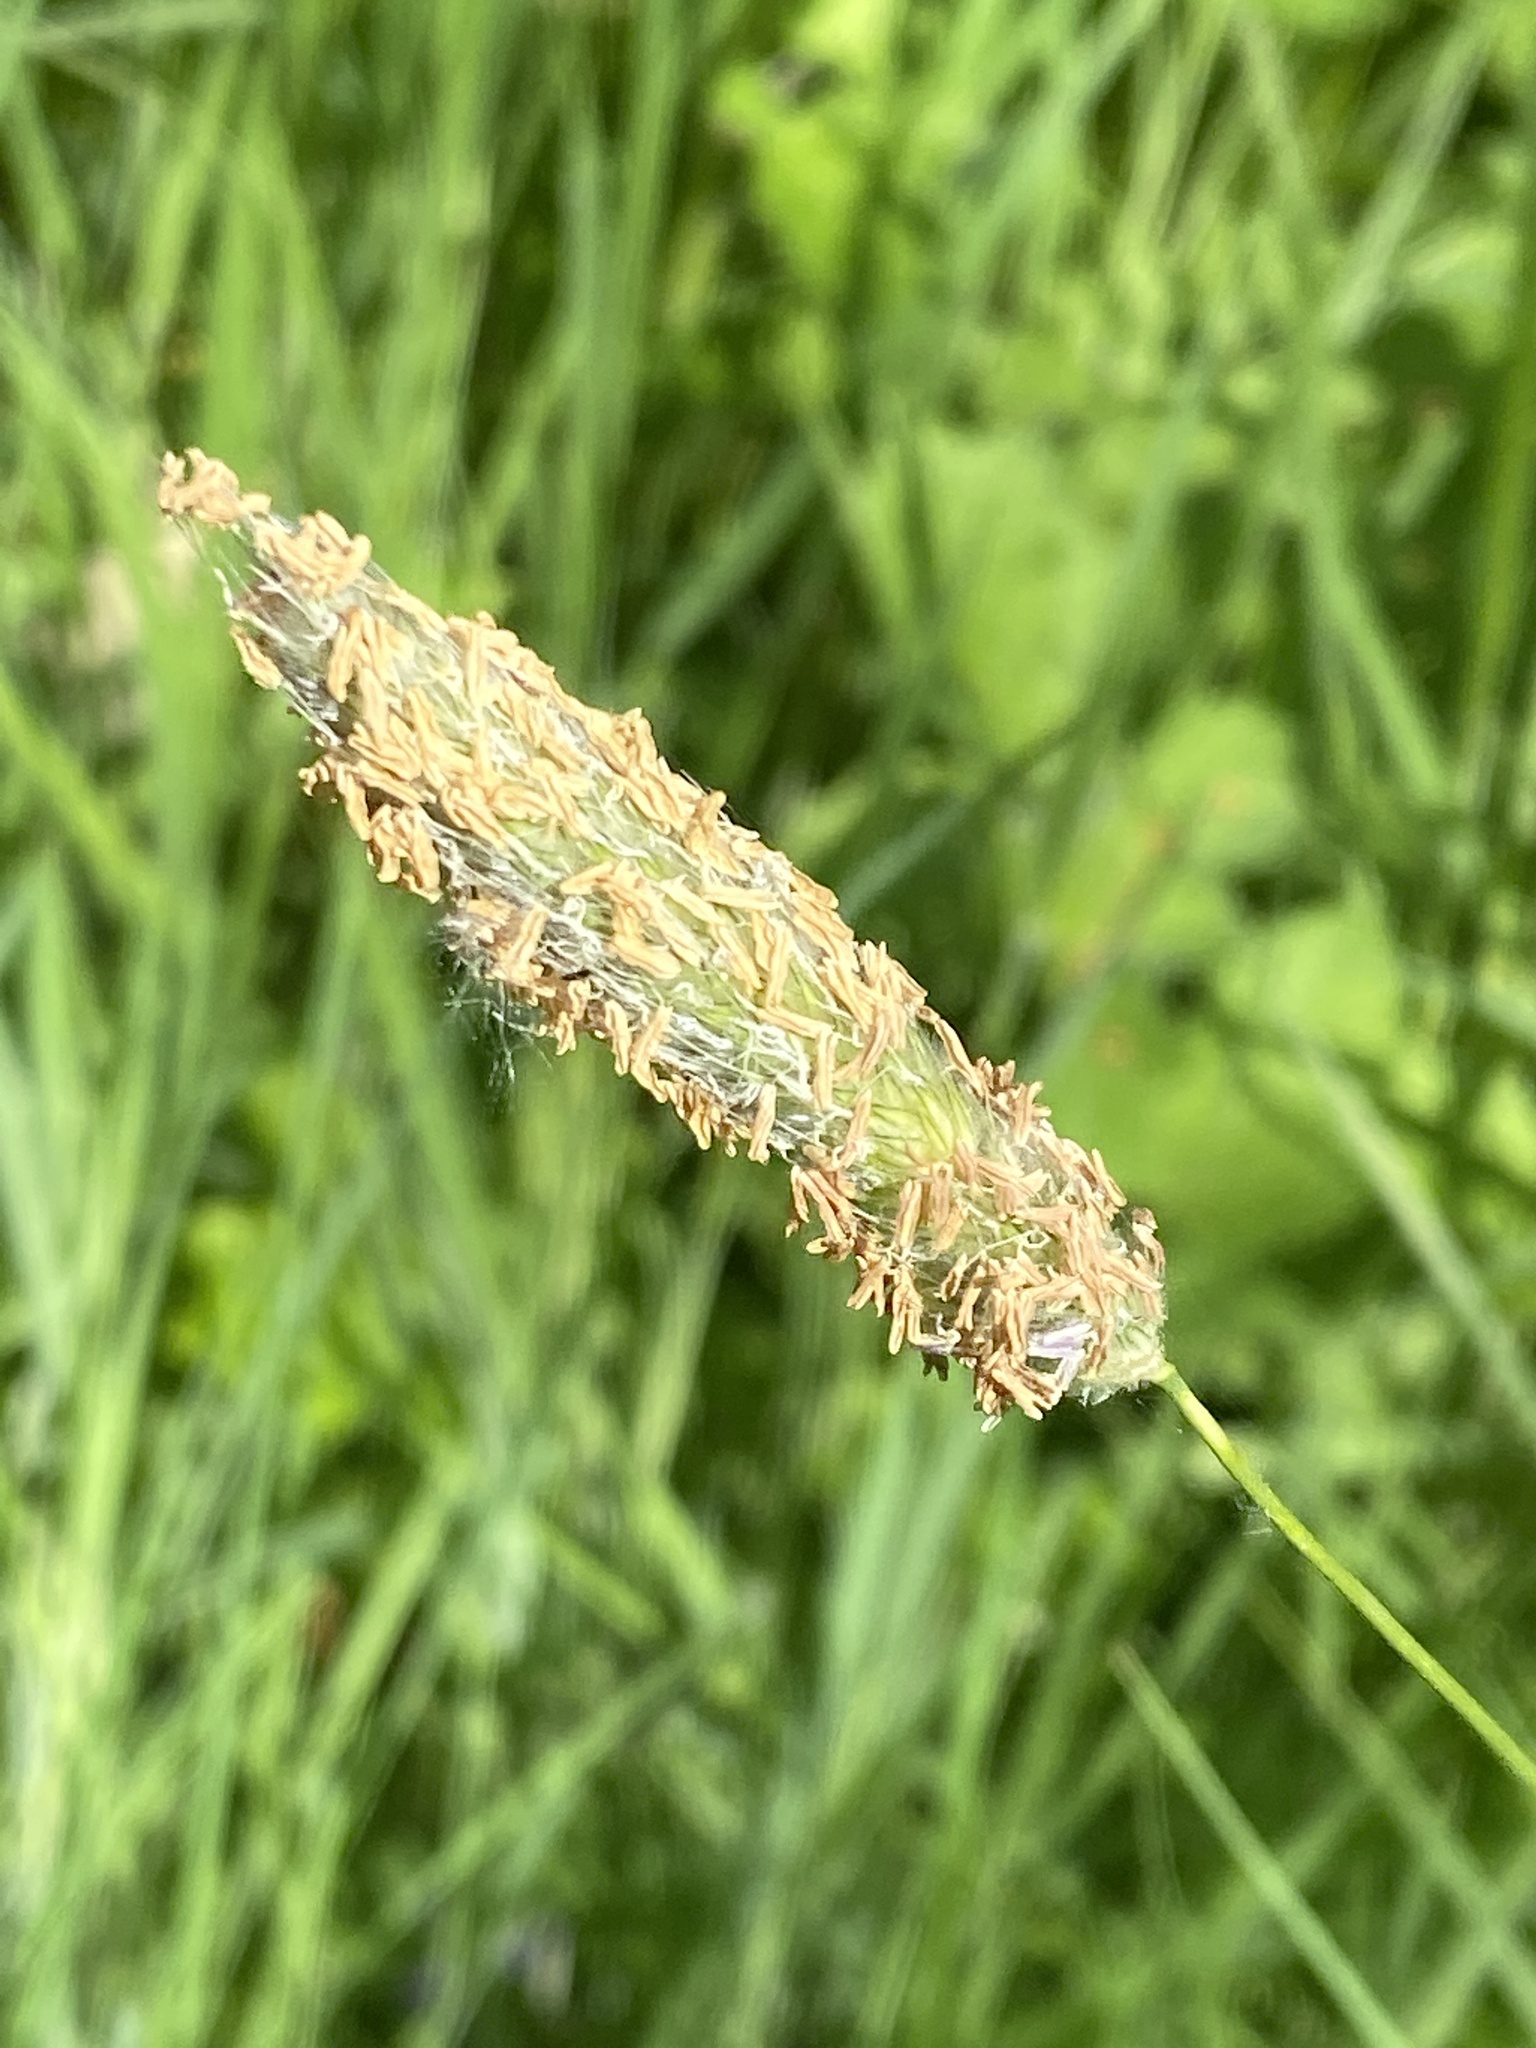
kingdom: Plantae
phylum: Tracheophyta
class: Liliopsida
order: Poales
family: Poaceae
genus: Alopecurus
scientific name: Alopecurus pratensis
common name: Meadow foxtail
